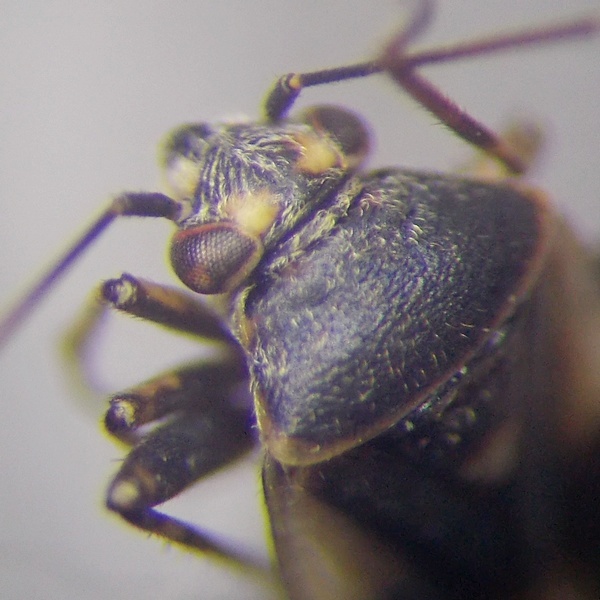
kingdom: Animalia
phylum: Arthropoda
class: Insecta
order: Hemiptera
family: Miridae
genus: Polymerus
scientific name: Polymerus cognatus
